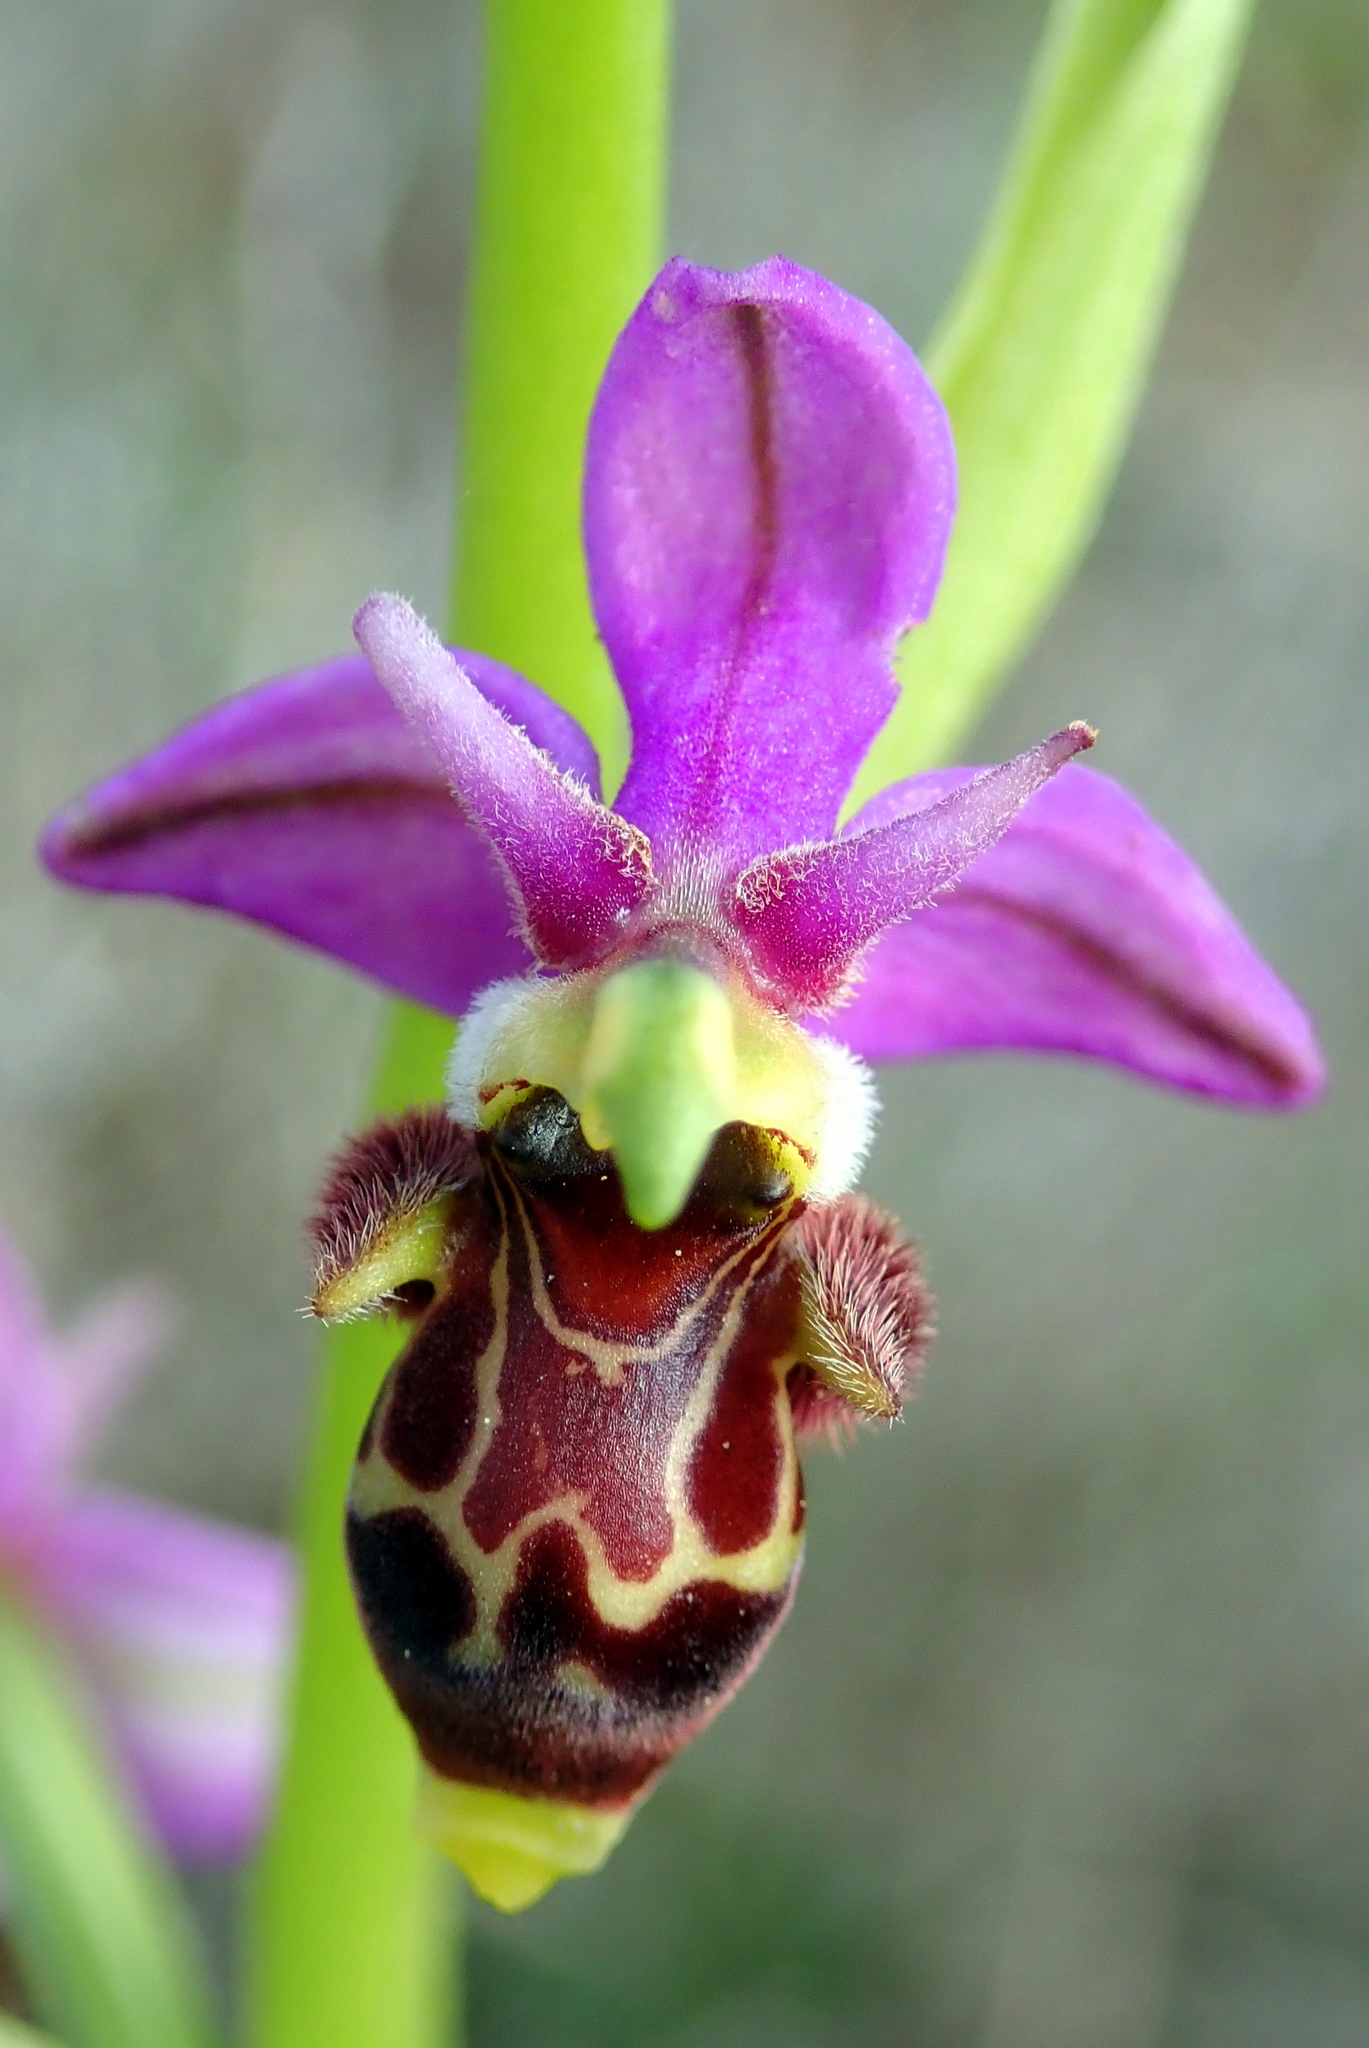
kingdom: Plantae
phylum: Tracheophyta
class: Liliopsida
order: Asparagales
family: Orchidaceae
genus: Ophrys
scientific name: Ophrys scolopax
